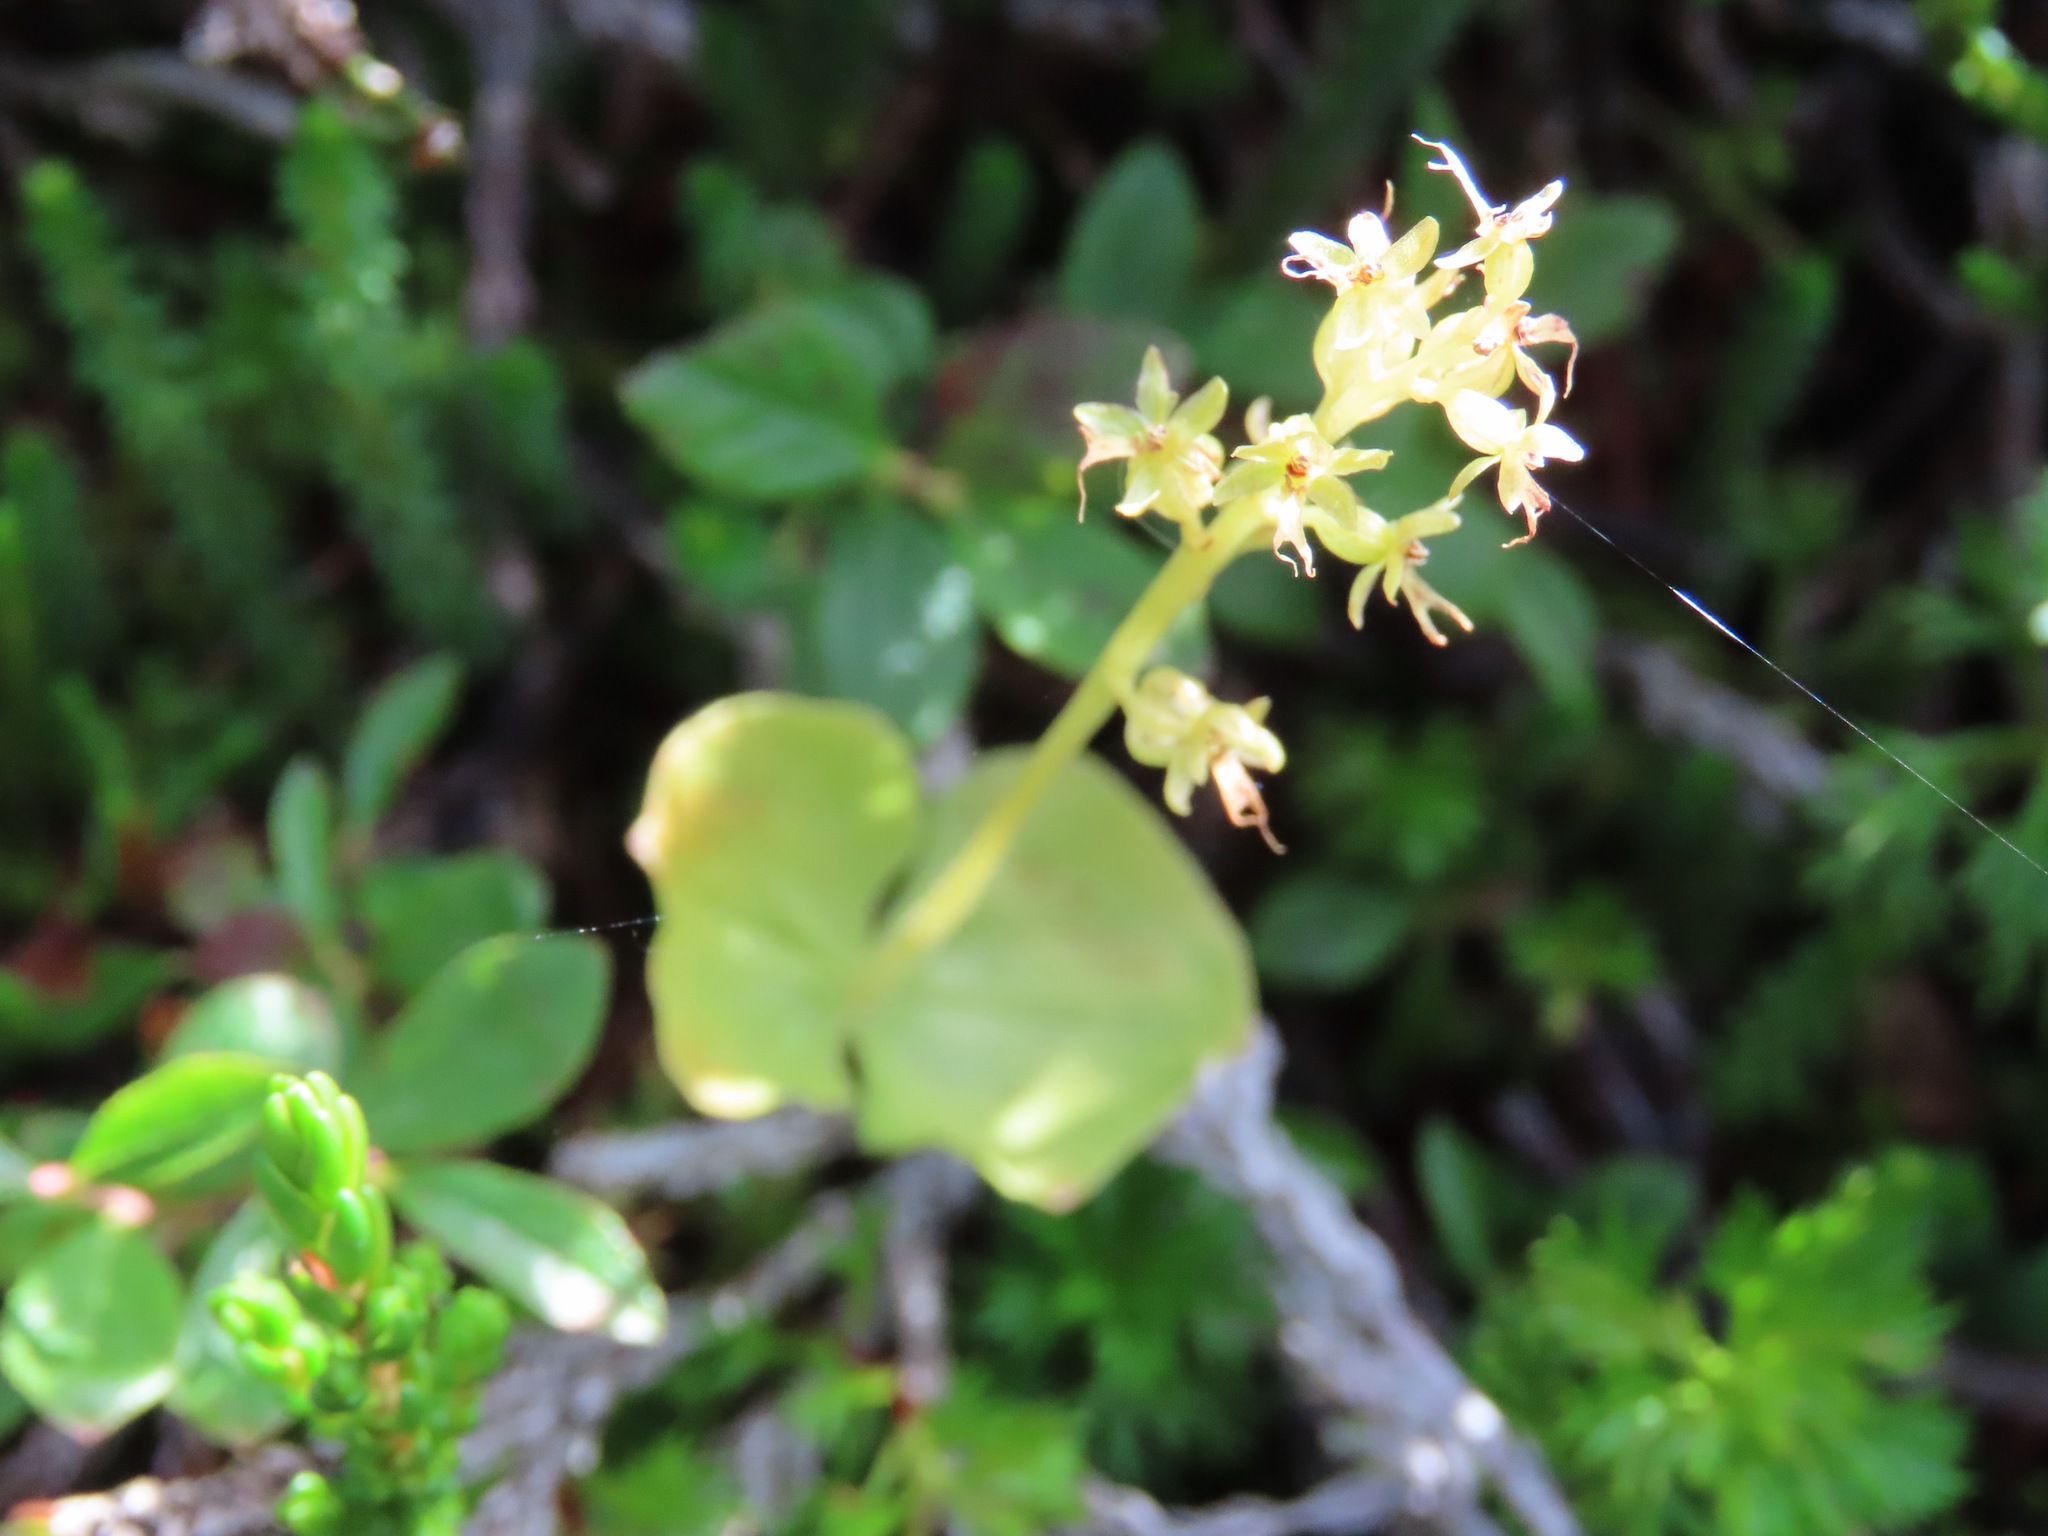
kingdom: Plantae
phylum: Tracheophyta
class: Liliopsida
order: Asparagales
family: Orchidaceae
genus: Neottia
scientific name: Neottia cordata
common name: Lesser twayblade
